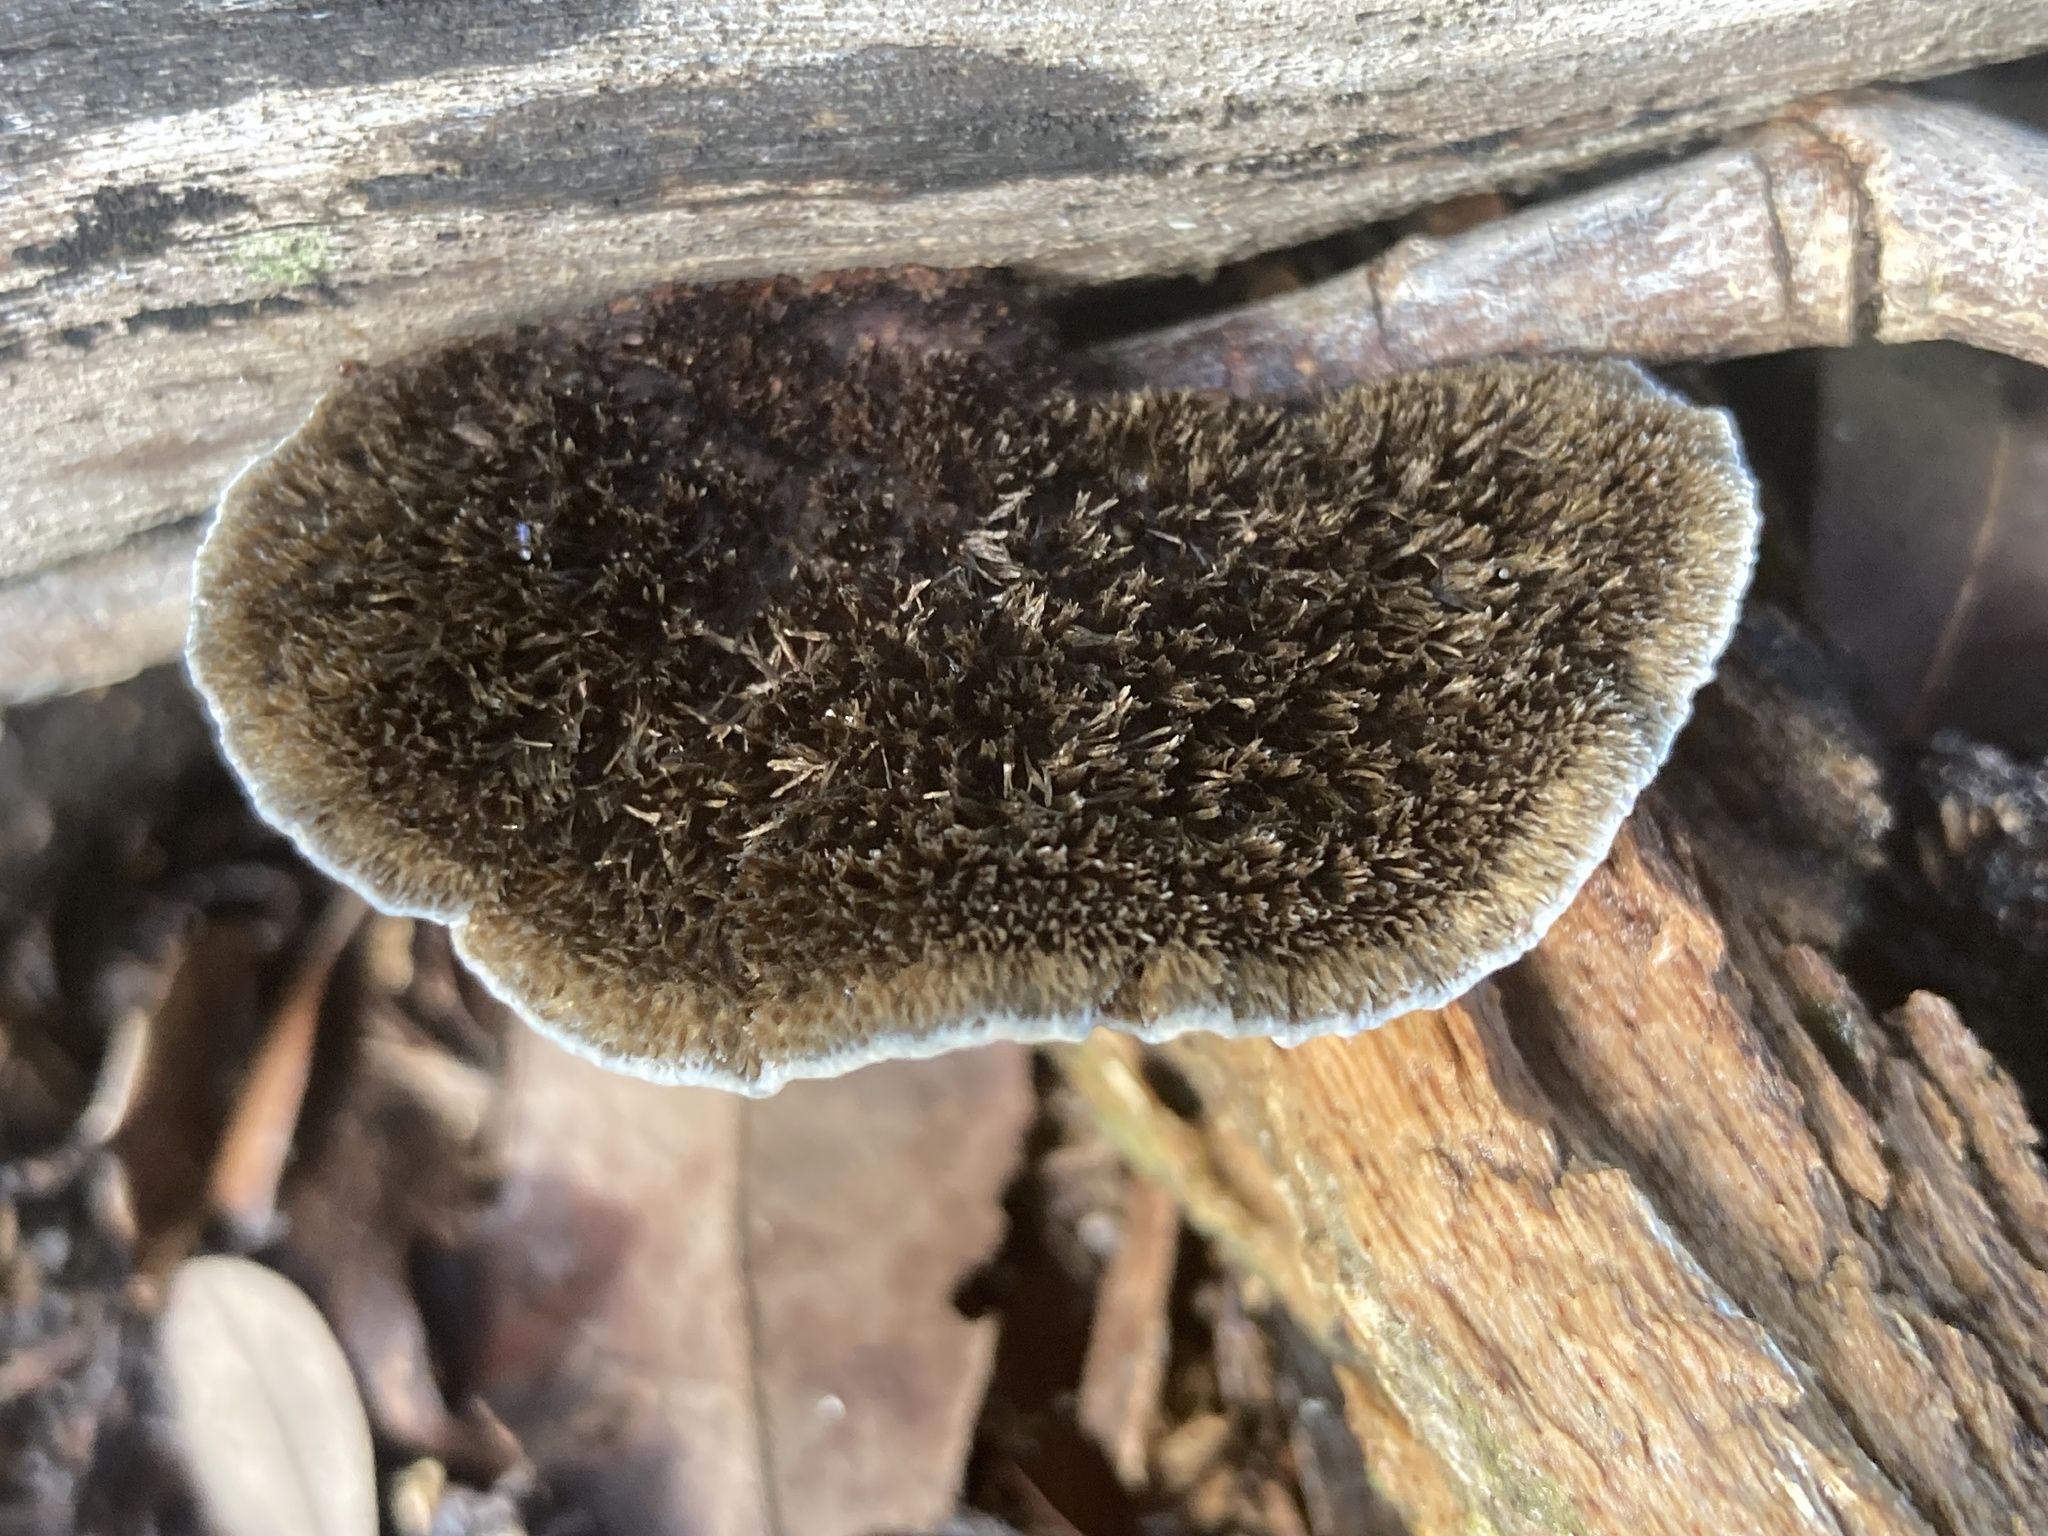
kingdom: Fungi
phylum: Basidiomycota
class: Agaricomycetes
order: Polyporales
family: Cerrenaceae
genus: Cerrena
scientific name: Cerrena hydnoides
